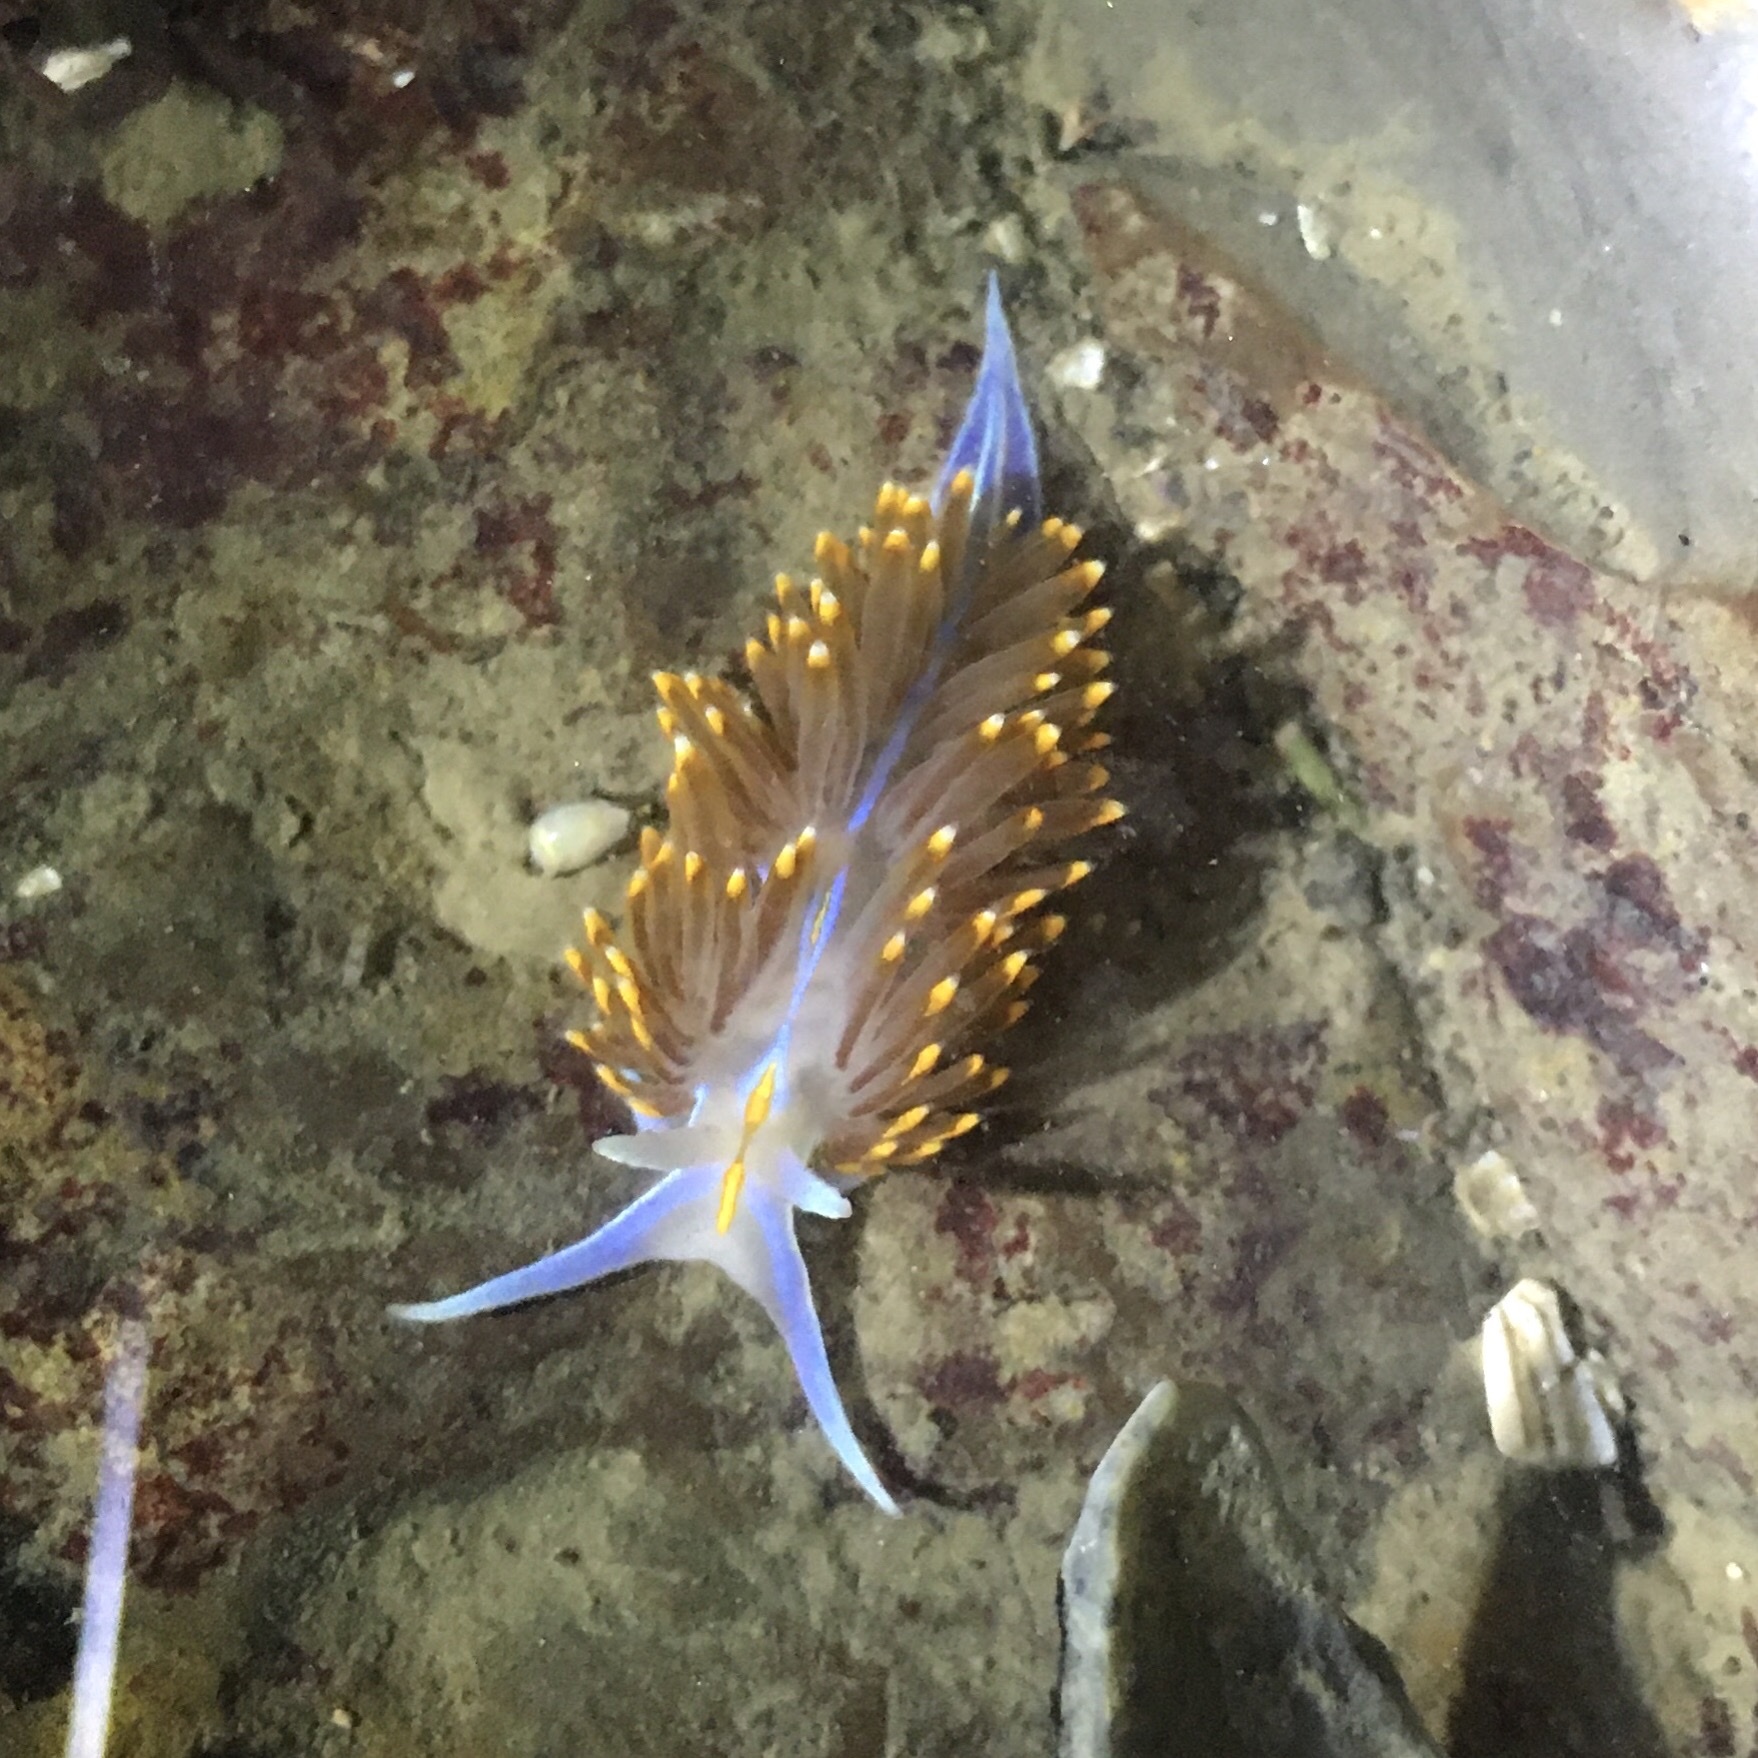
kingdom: Animalia
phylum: Mollusca
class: Gastropoda
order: Nudibranchia
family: Myrrhinidae
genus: Hermissenda
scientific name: Hermissenda opalescens
